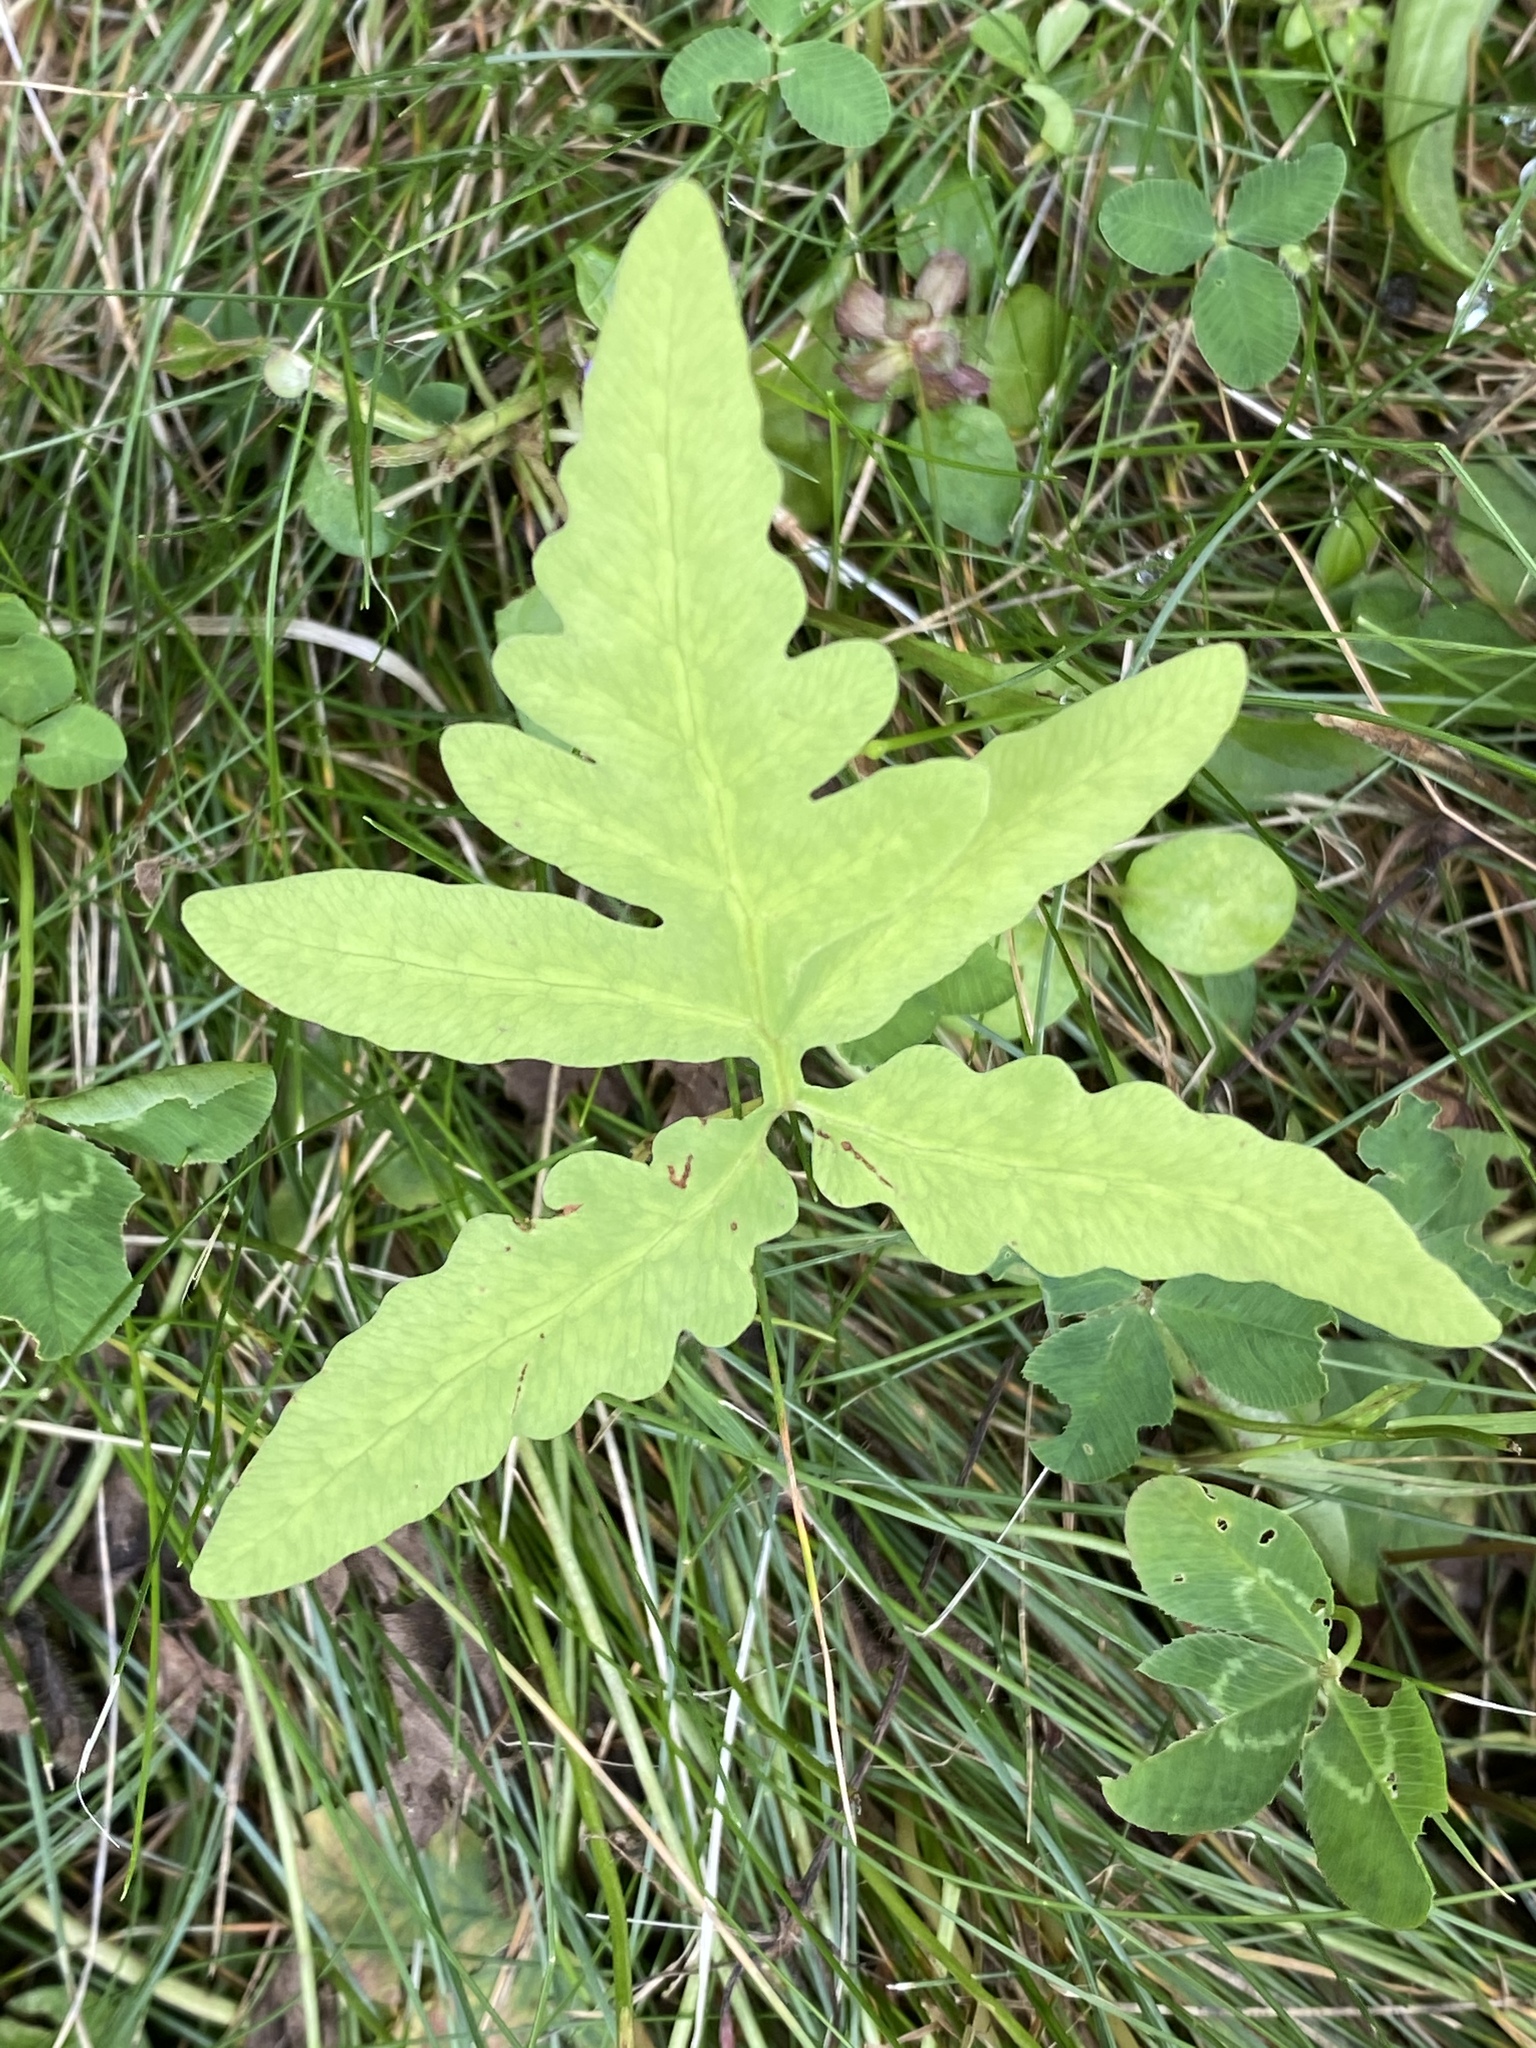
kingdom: Plantae
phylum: Tracheophyta
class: Polypodiopsida
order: Polypodiales
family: Onocleaceae
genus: Onoclea
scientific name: Onoclea sensibilis
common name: Sensitive fern
